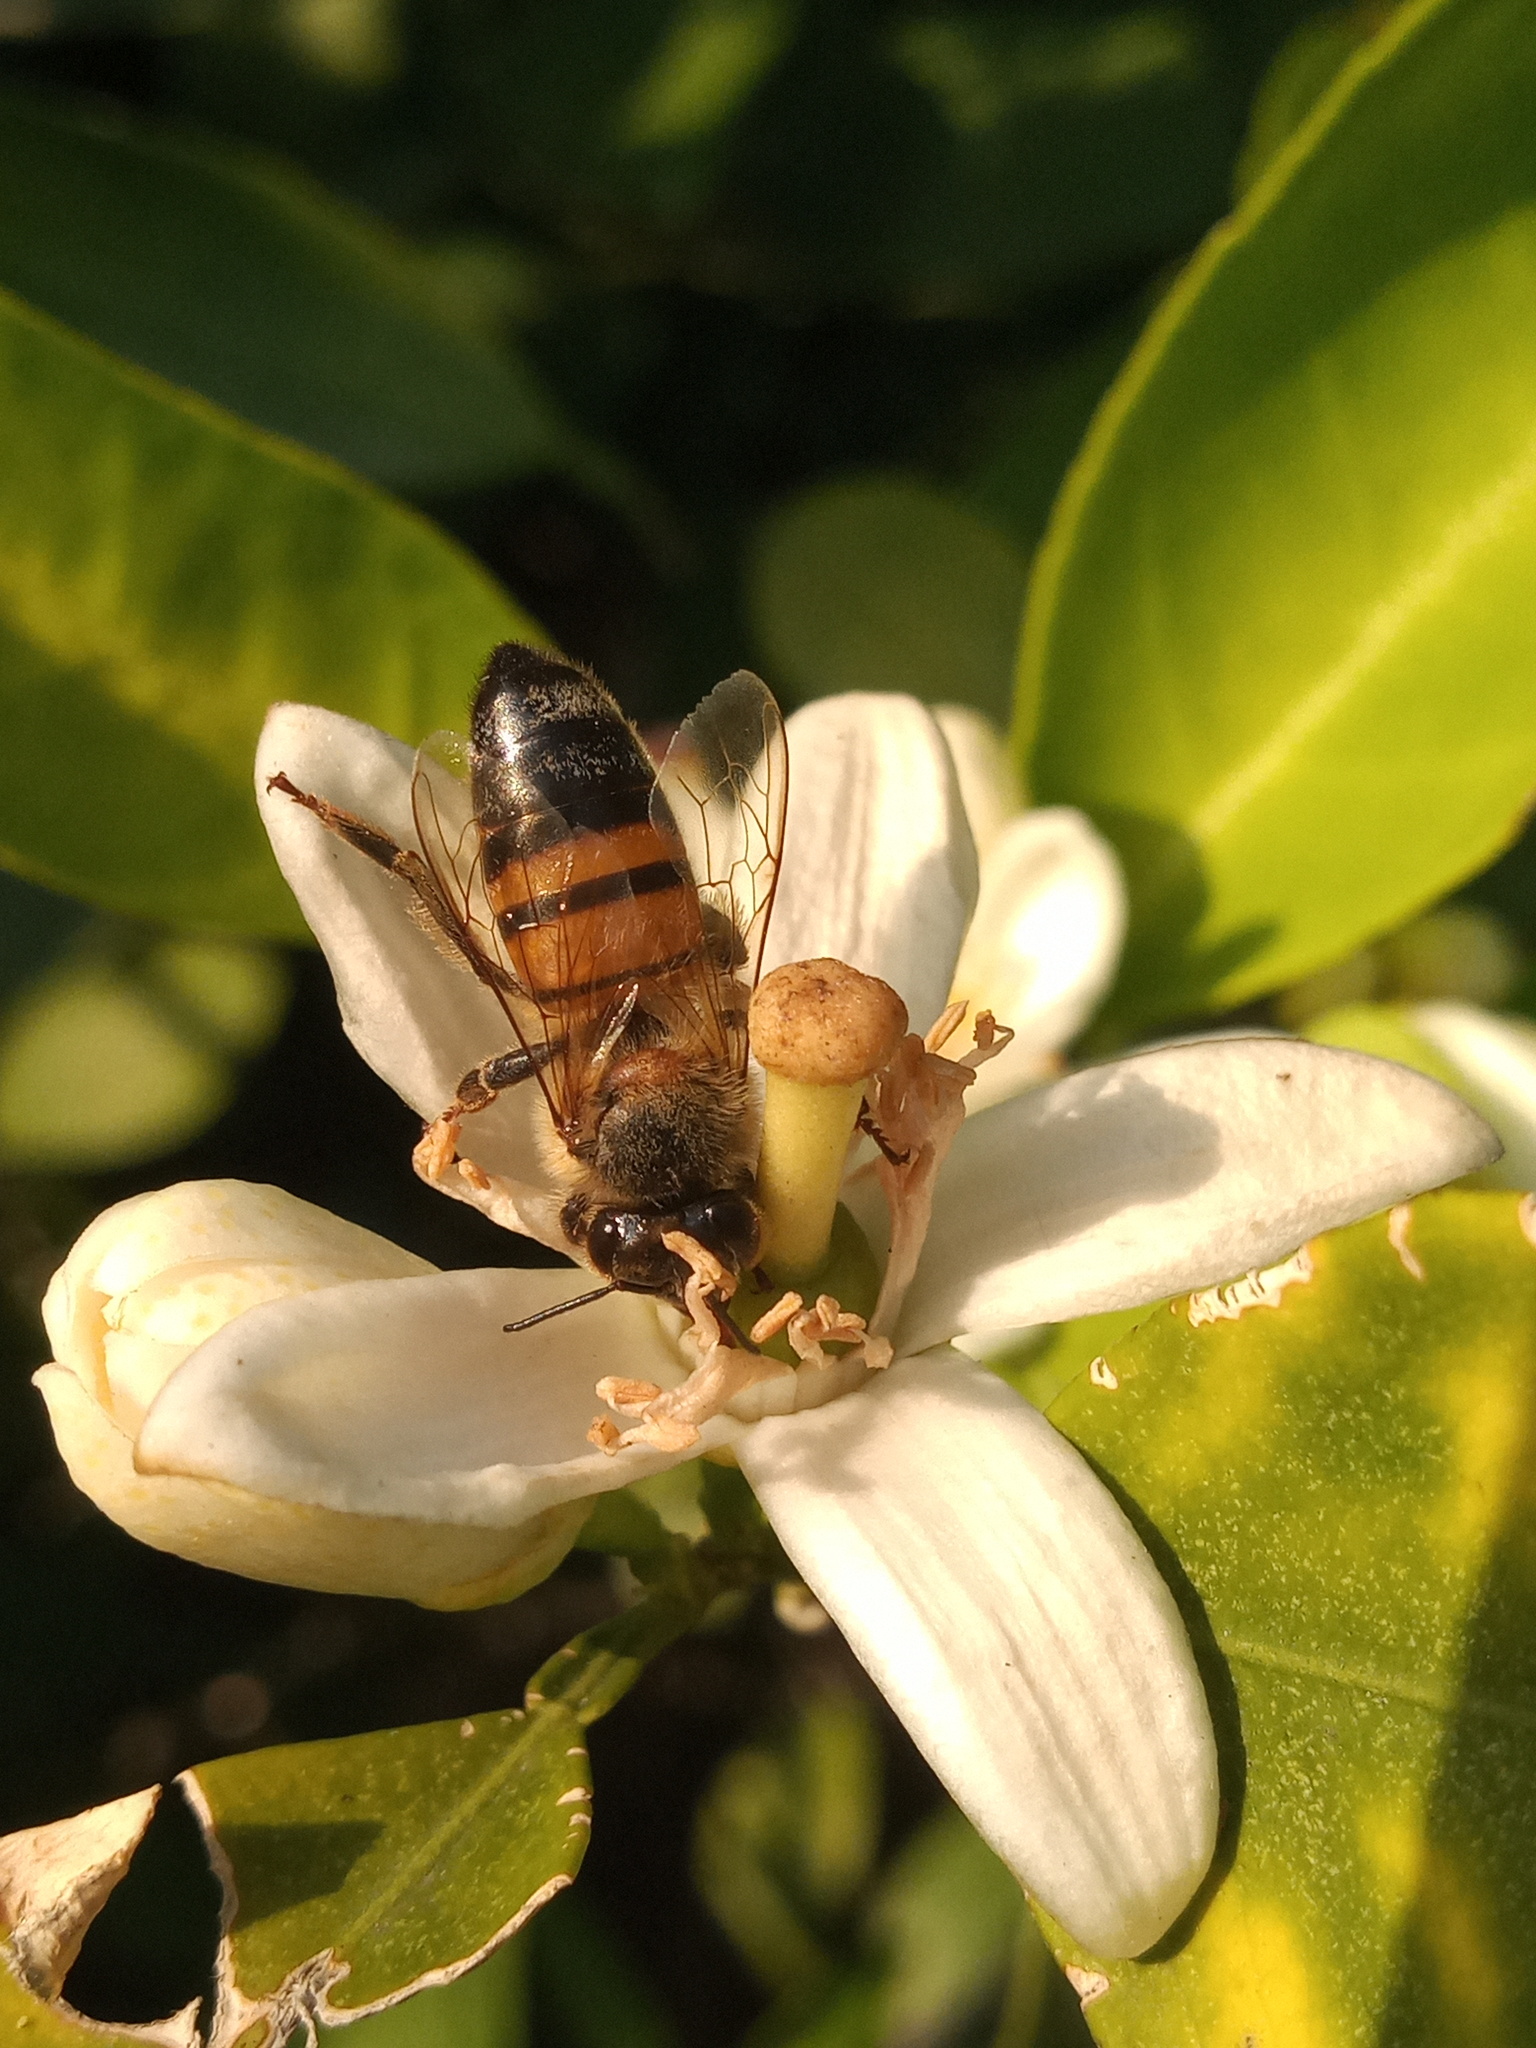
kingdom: Animalia
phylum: Arthropoda
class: Insecta
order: Hymenoptera
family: Apidae
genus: Apis
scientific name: Apis mellifera
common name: Honey bee
